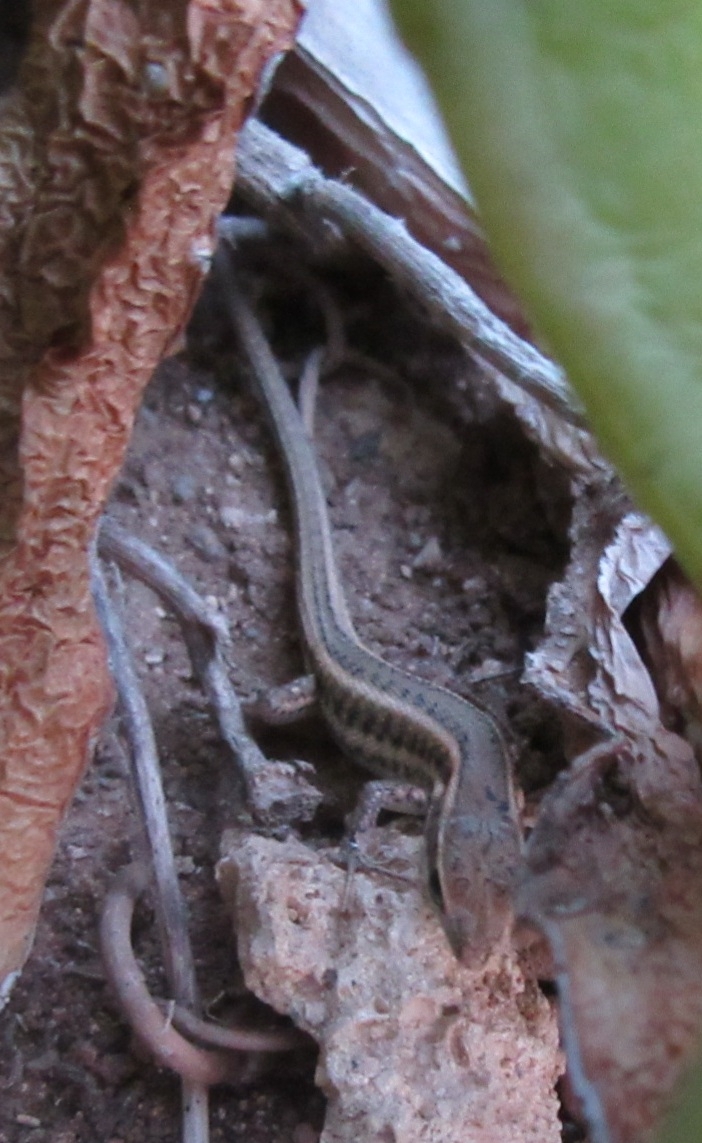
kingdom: Animalia
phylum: Chordata
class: Squamata
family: Lacertidae
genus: Ophisops
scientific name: Ophisops elegans
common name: Snake-eyed lizard
